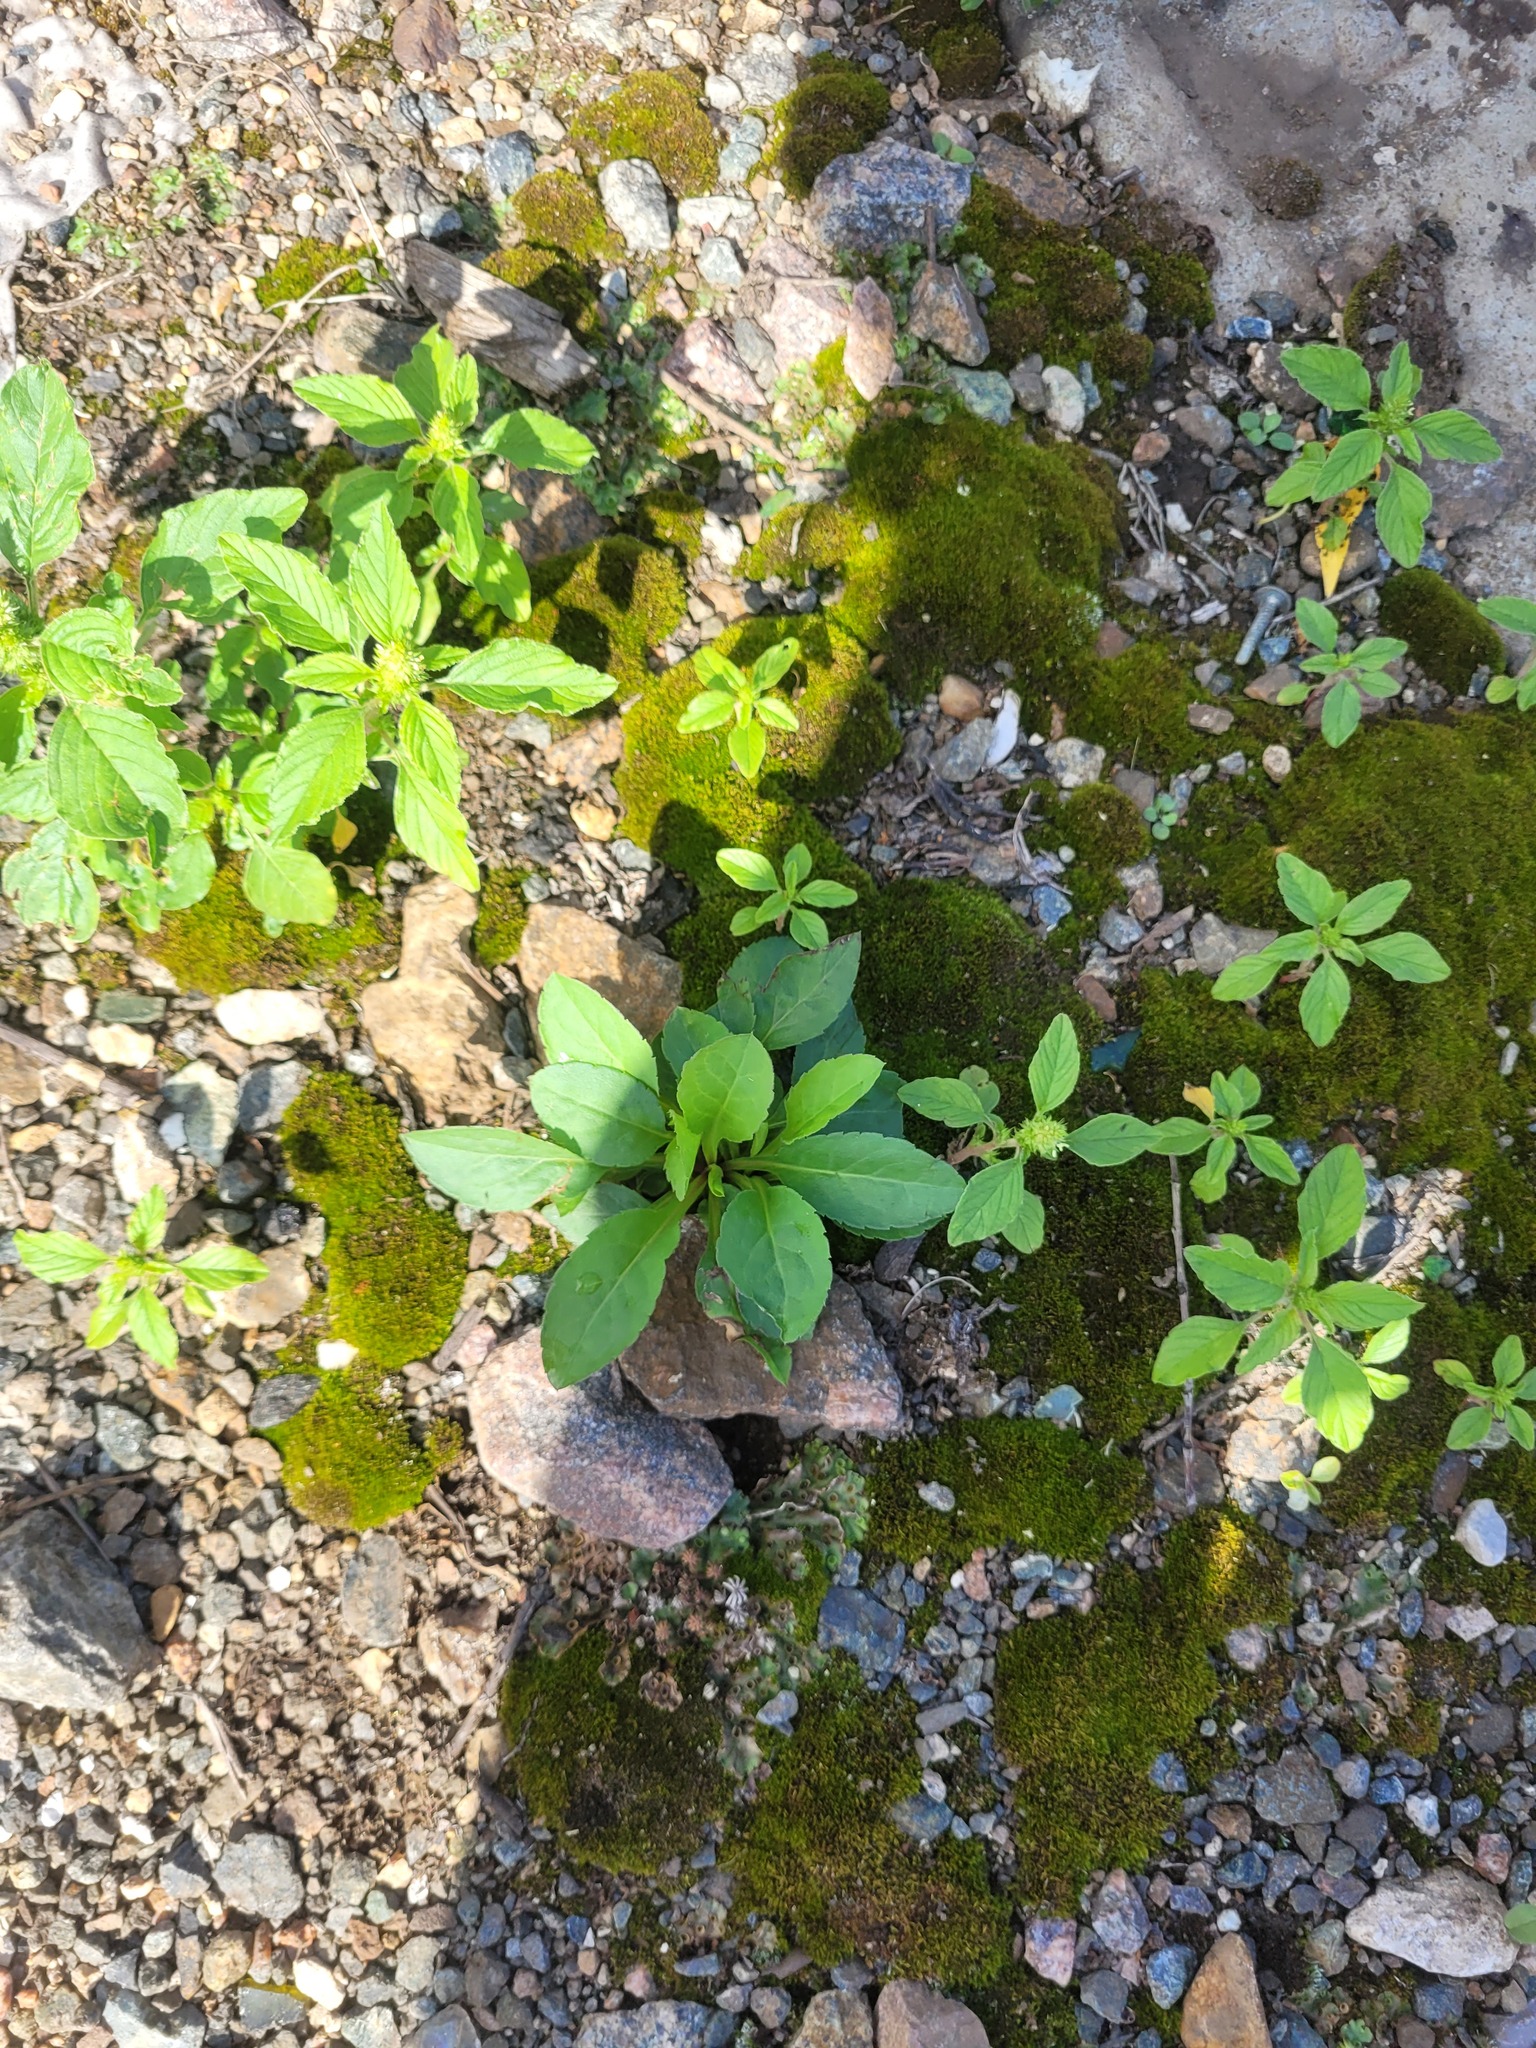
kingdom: Plantae
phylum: Tracheophyta
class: Magnoliopsida
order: Asterales
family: Asteraceae
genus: Solidago
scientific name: Solidago virgaurea
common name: Goldenrod
